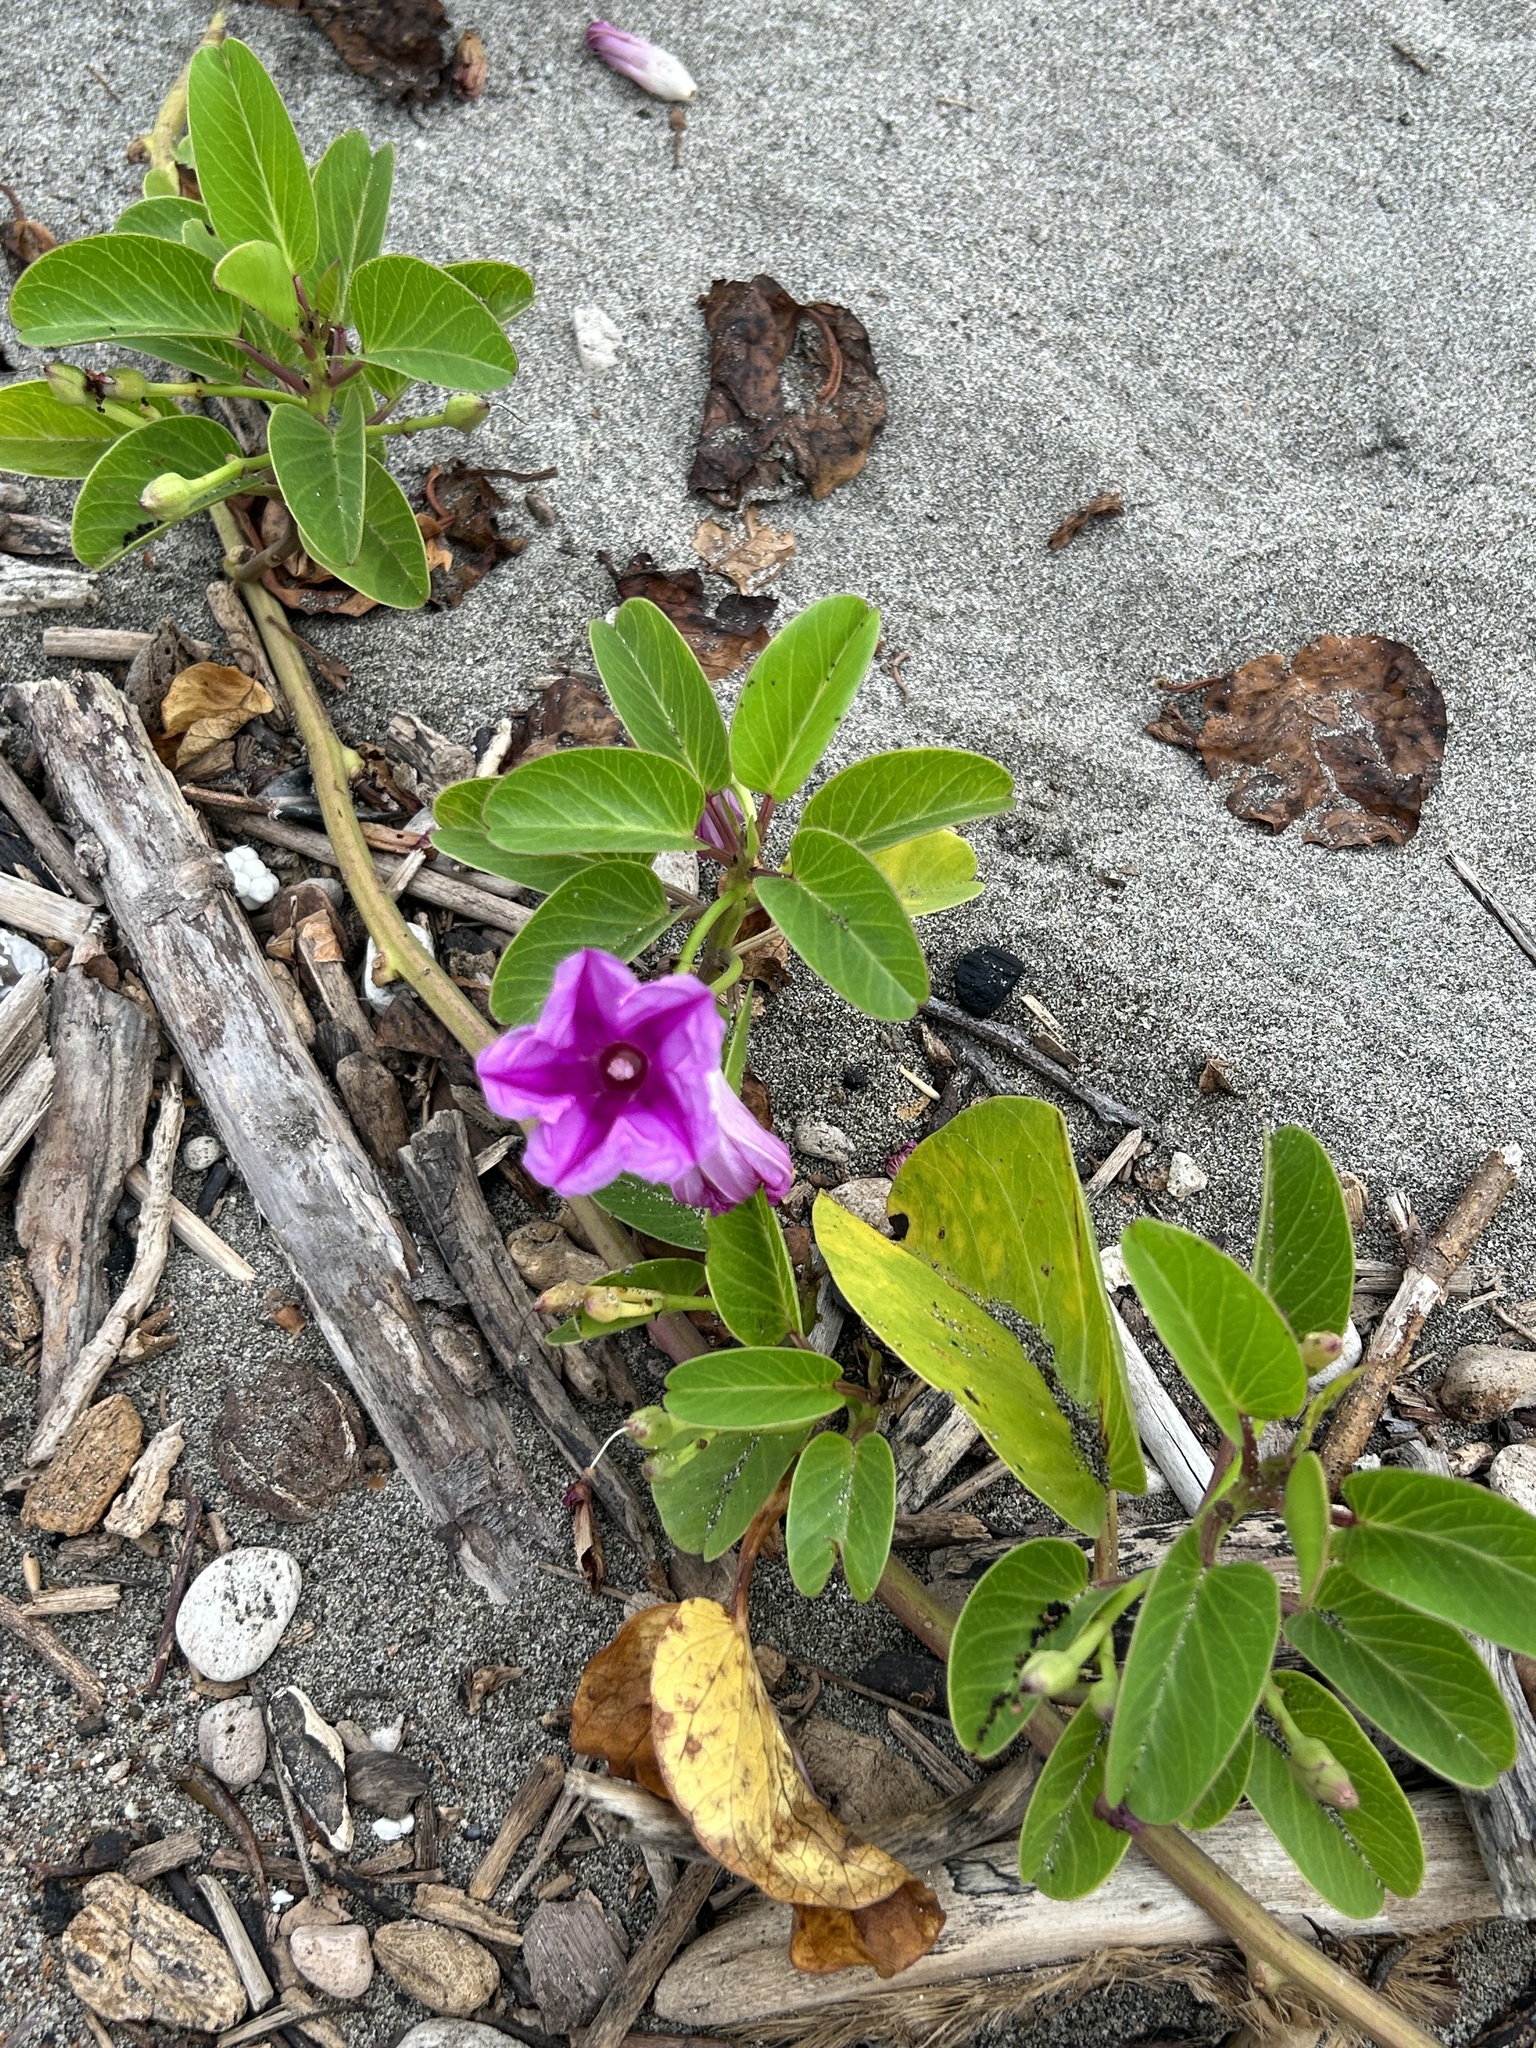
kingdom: Plantae
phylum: Tracheophyta
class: Magnoliopsida
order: Solanales
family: Convolvulaceae
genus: Ipomoea
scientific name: Ipomoea pes-caprae
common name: Beach morning glory
